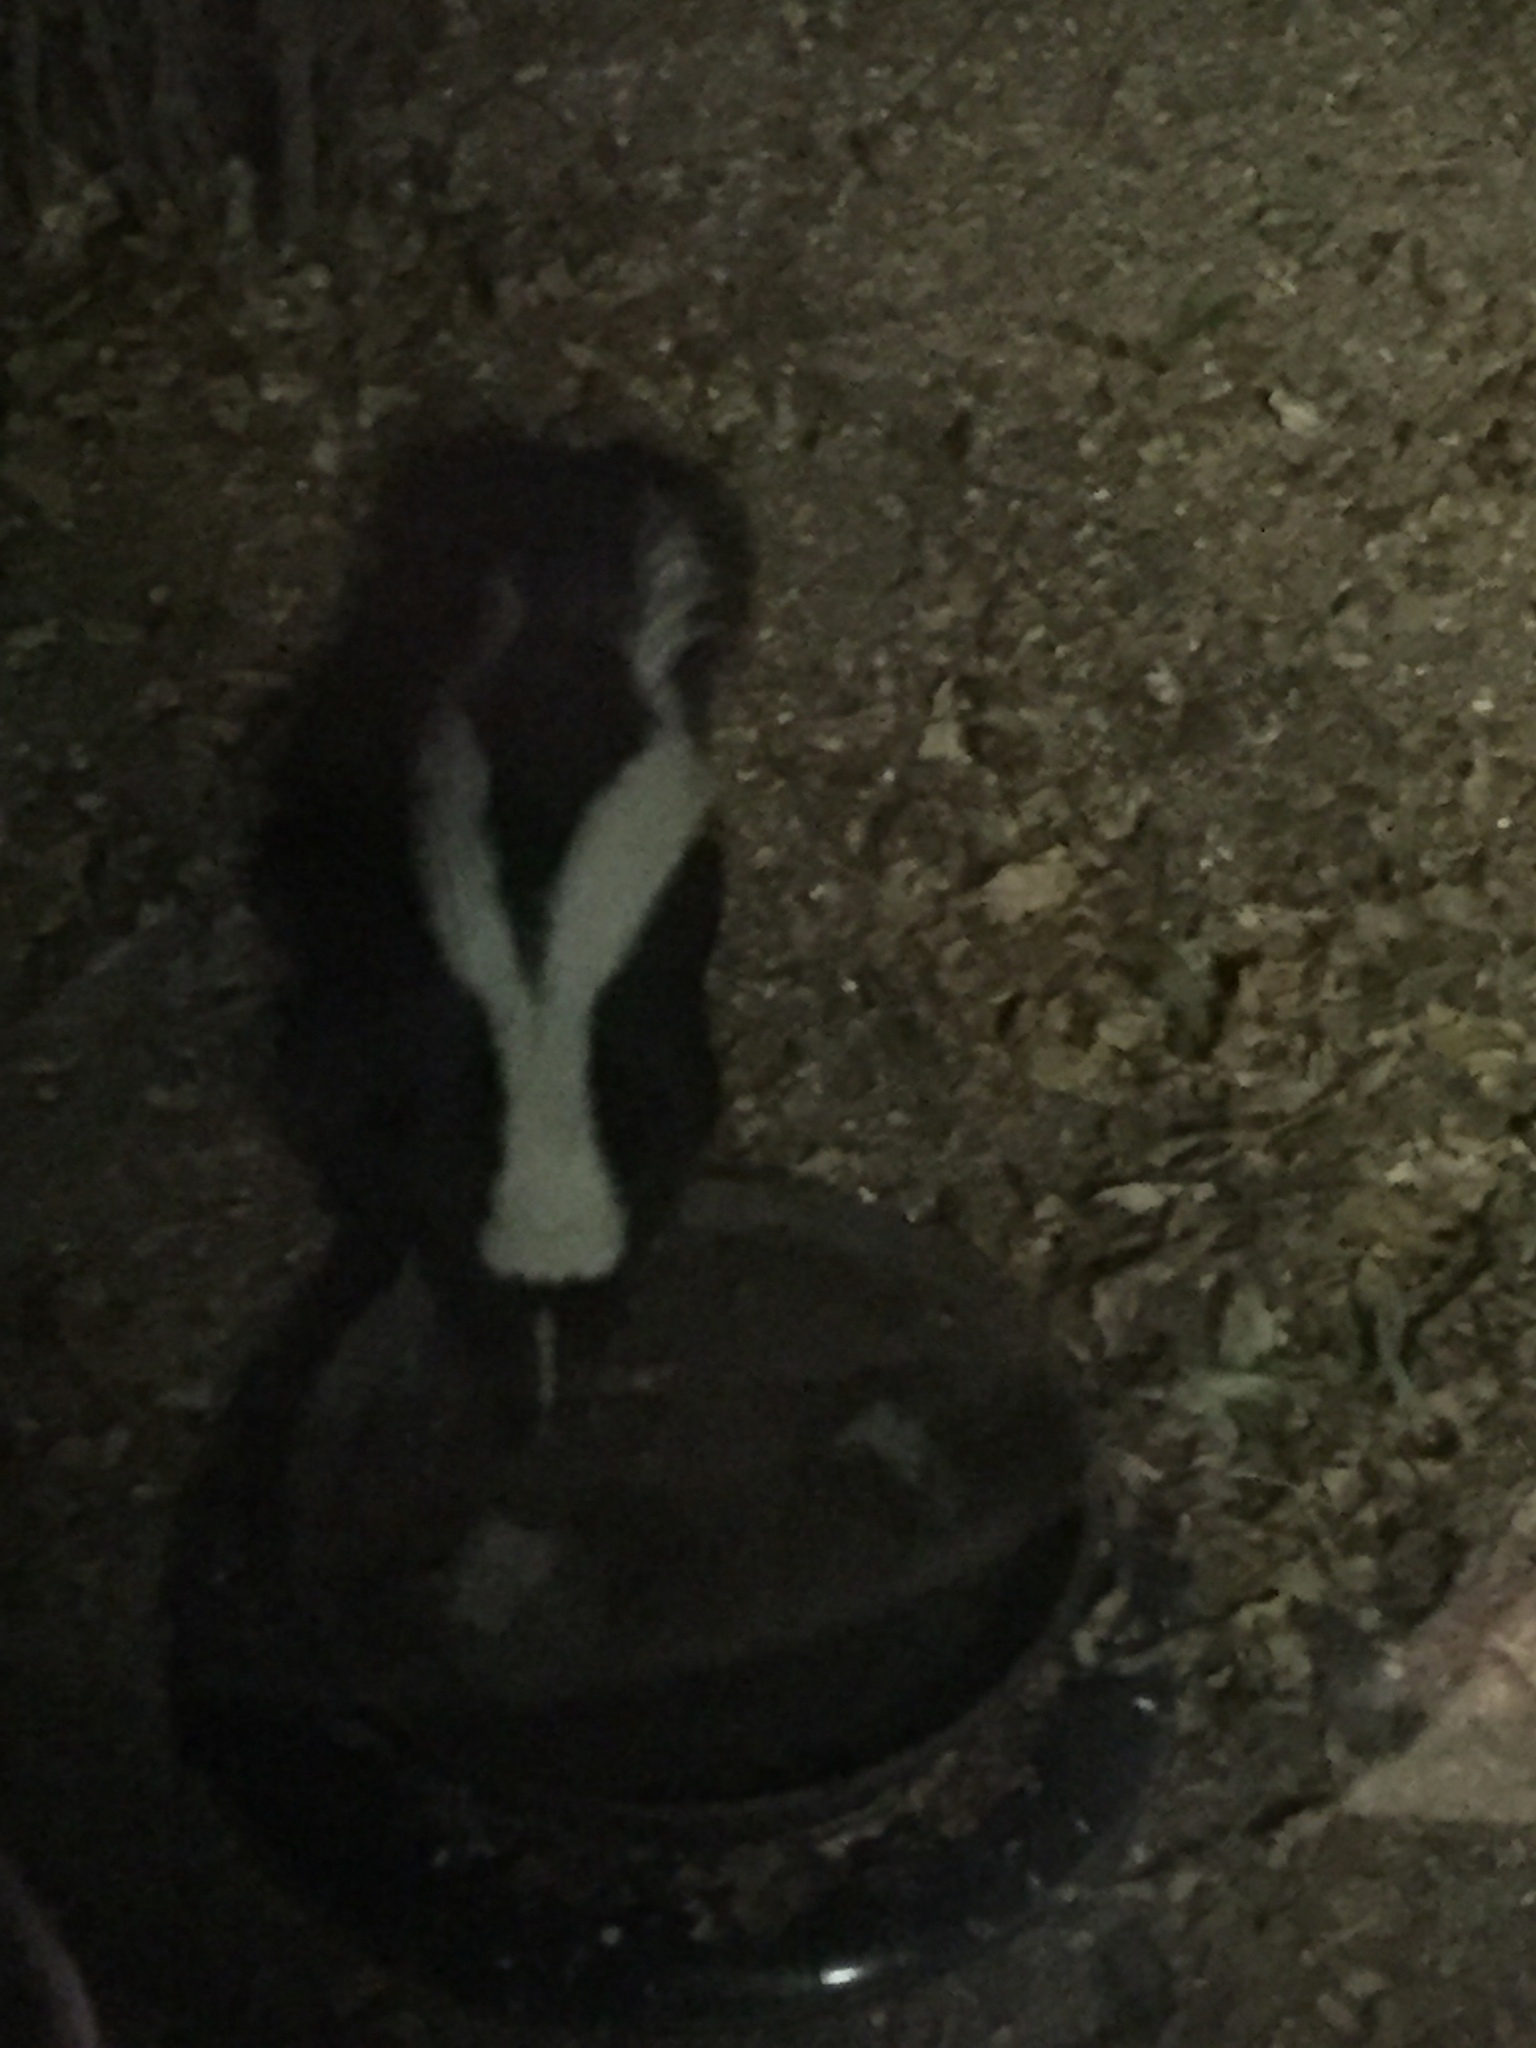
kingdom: Animalia
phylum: Chordata
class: Mammalia
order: Carnivora
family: Mephitidae
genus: Mephitis
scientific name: Mephitis mephitis
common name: Striped skunk
